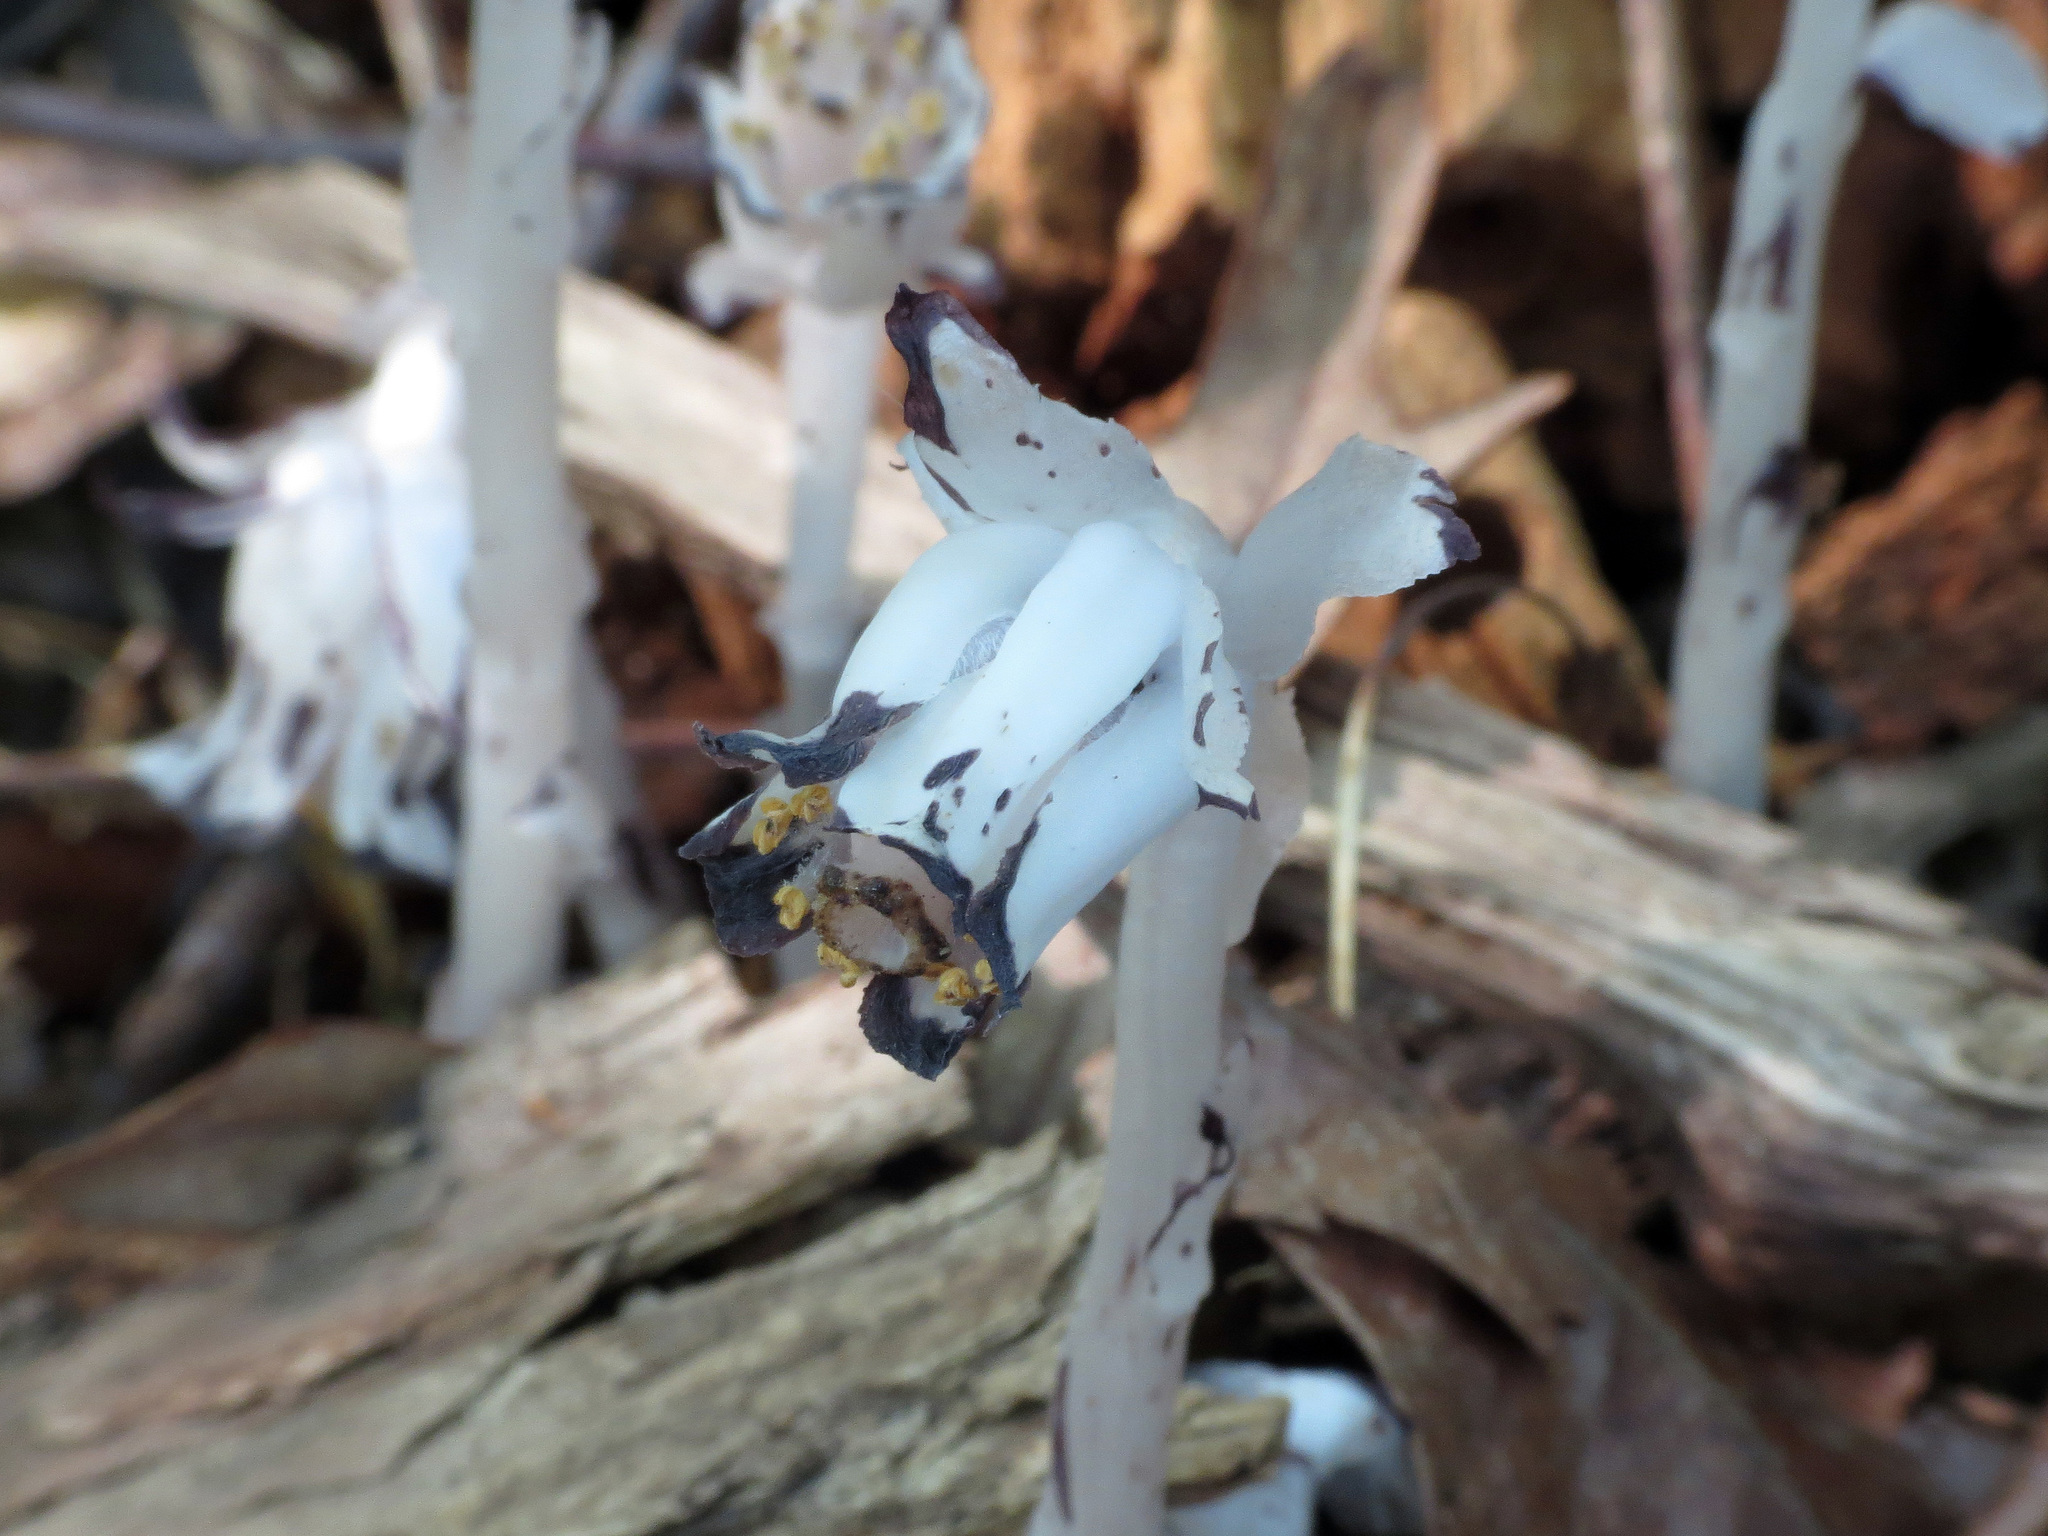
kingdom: Plantae
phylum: Tracheophyta
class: Magnoliopsida
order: Ericales
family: Ericaceae
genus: Monotropa
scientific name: Monotropa uniflora
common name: Convulsion root
